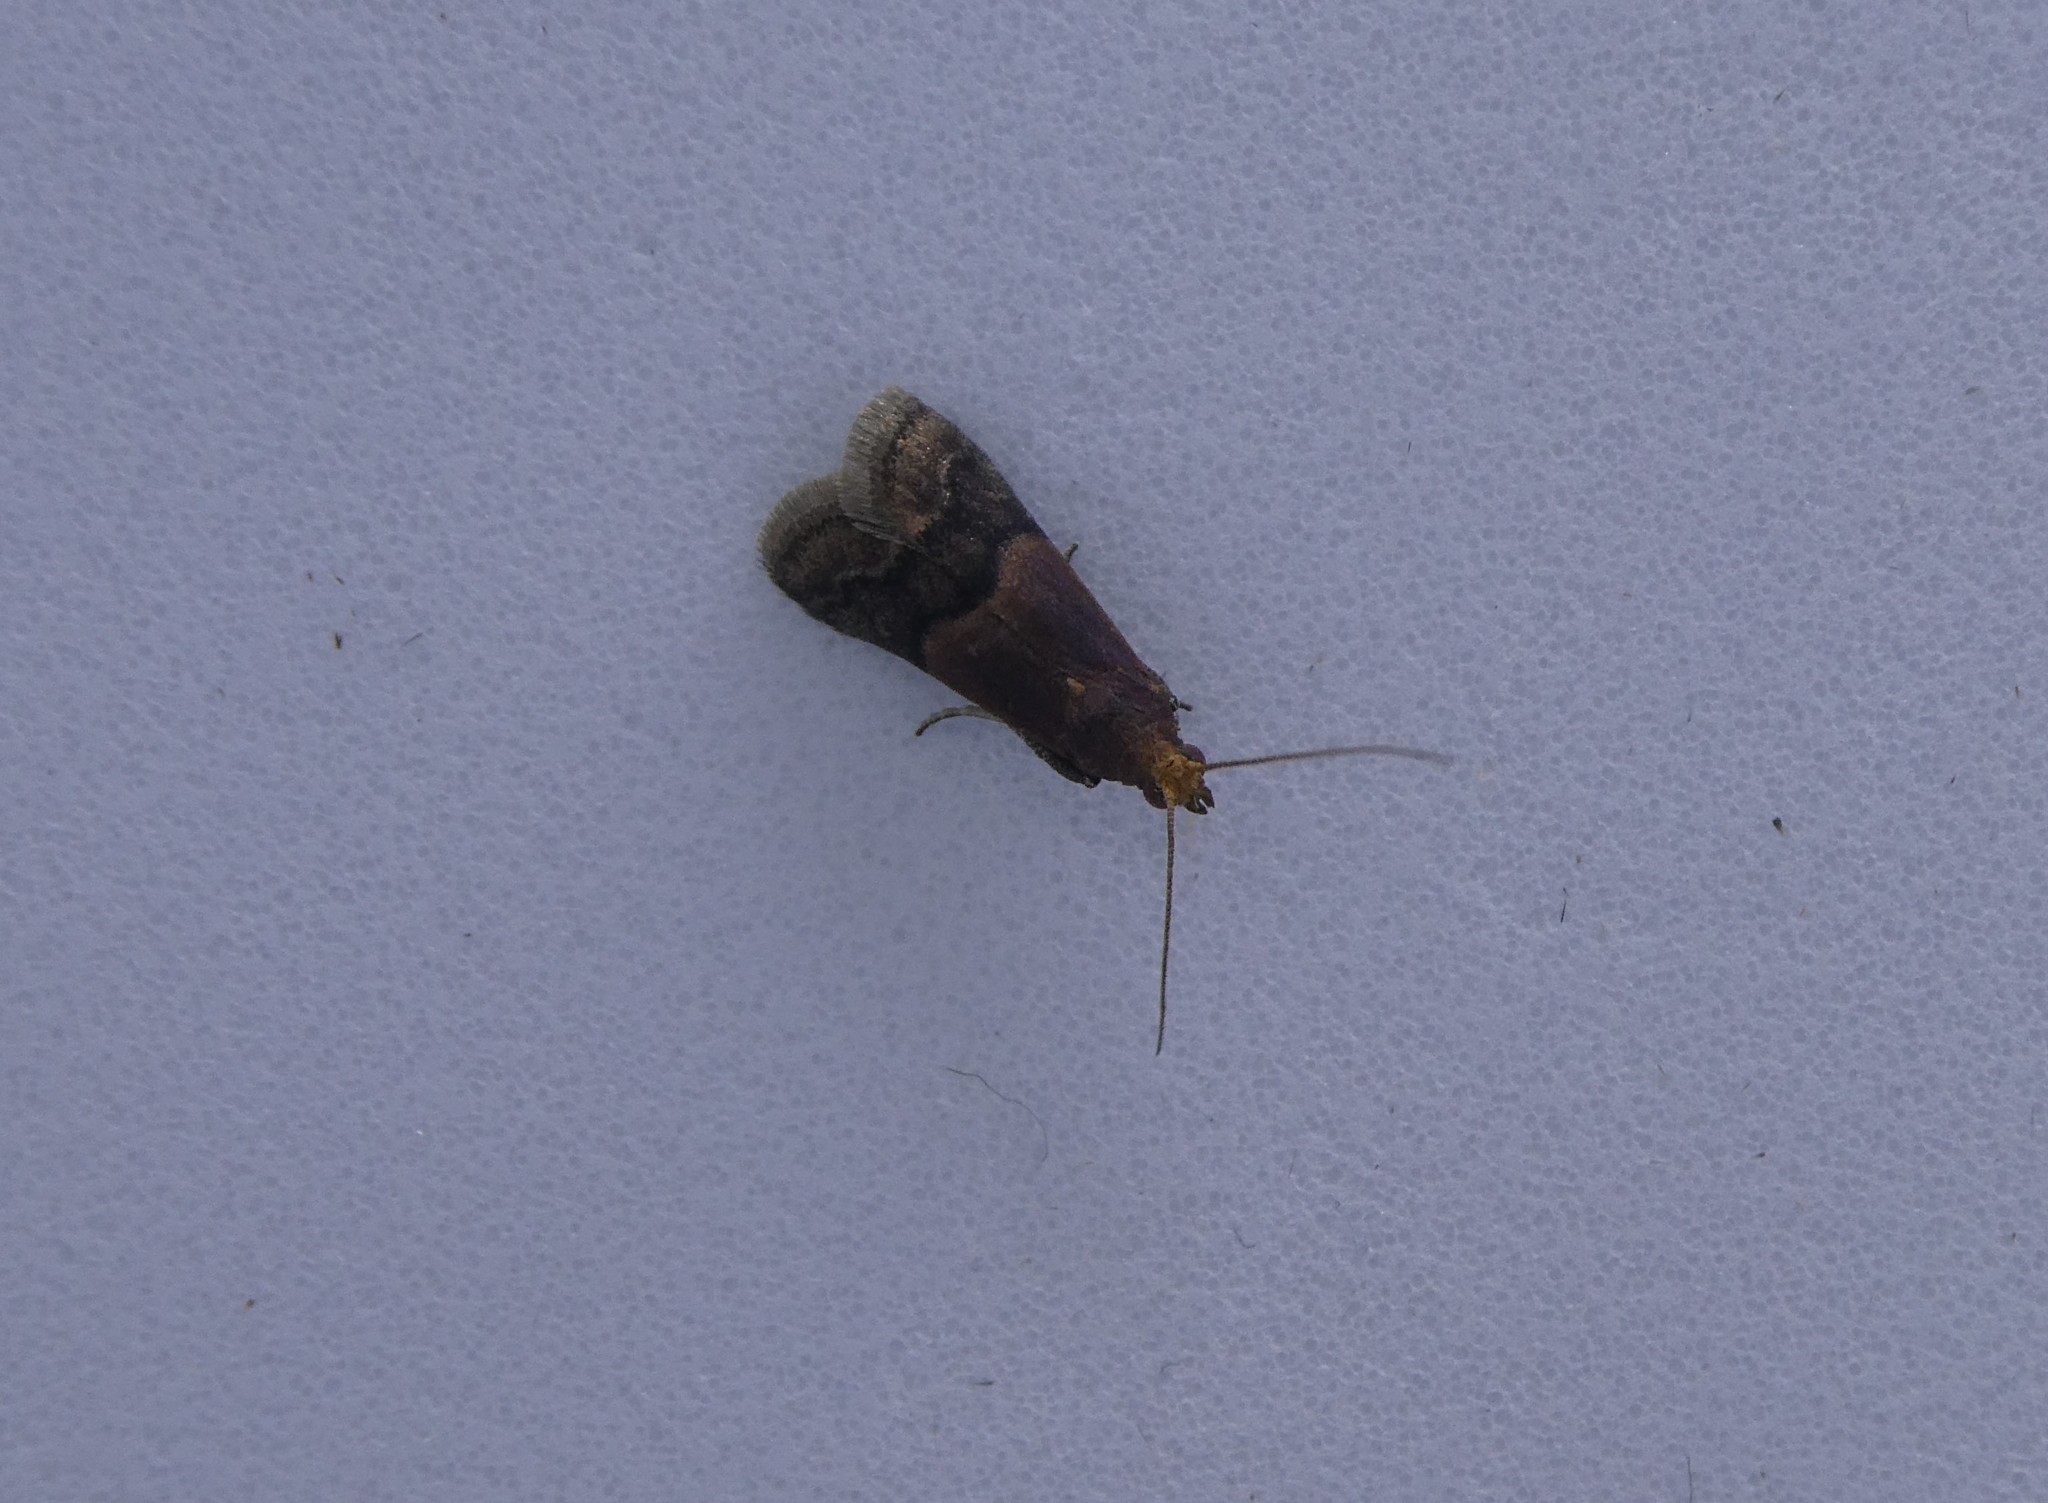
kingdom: Animalia
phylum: Arthropoda
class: Insecta
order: Lepidoptera
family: Pyralidae
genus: Eulogia
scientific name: Eulogia ochrifrontella
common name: Broad-banded eulogia moth
